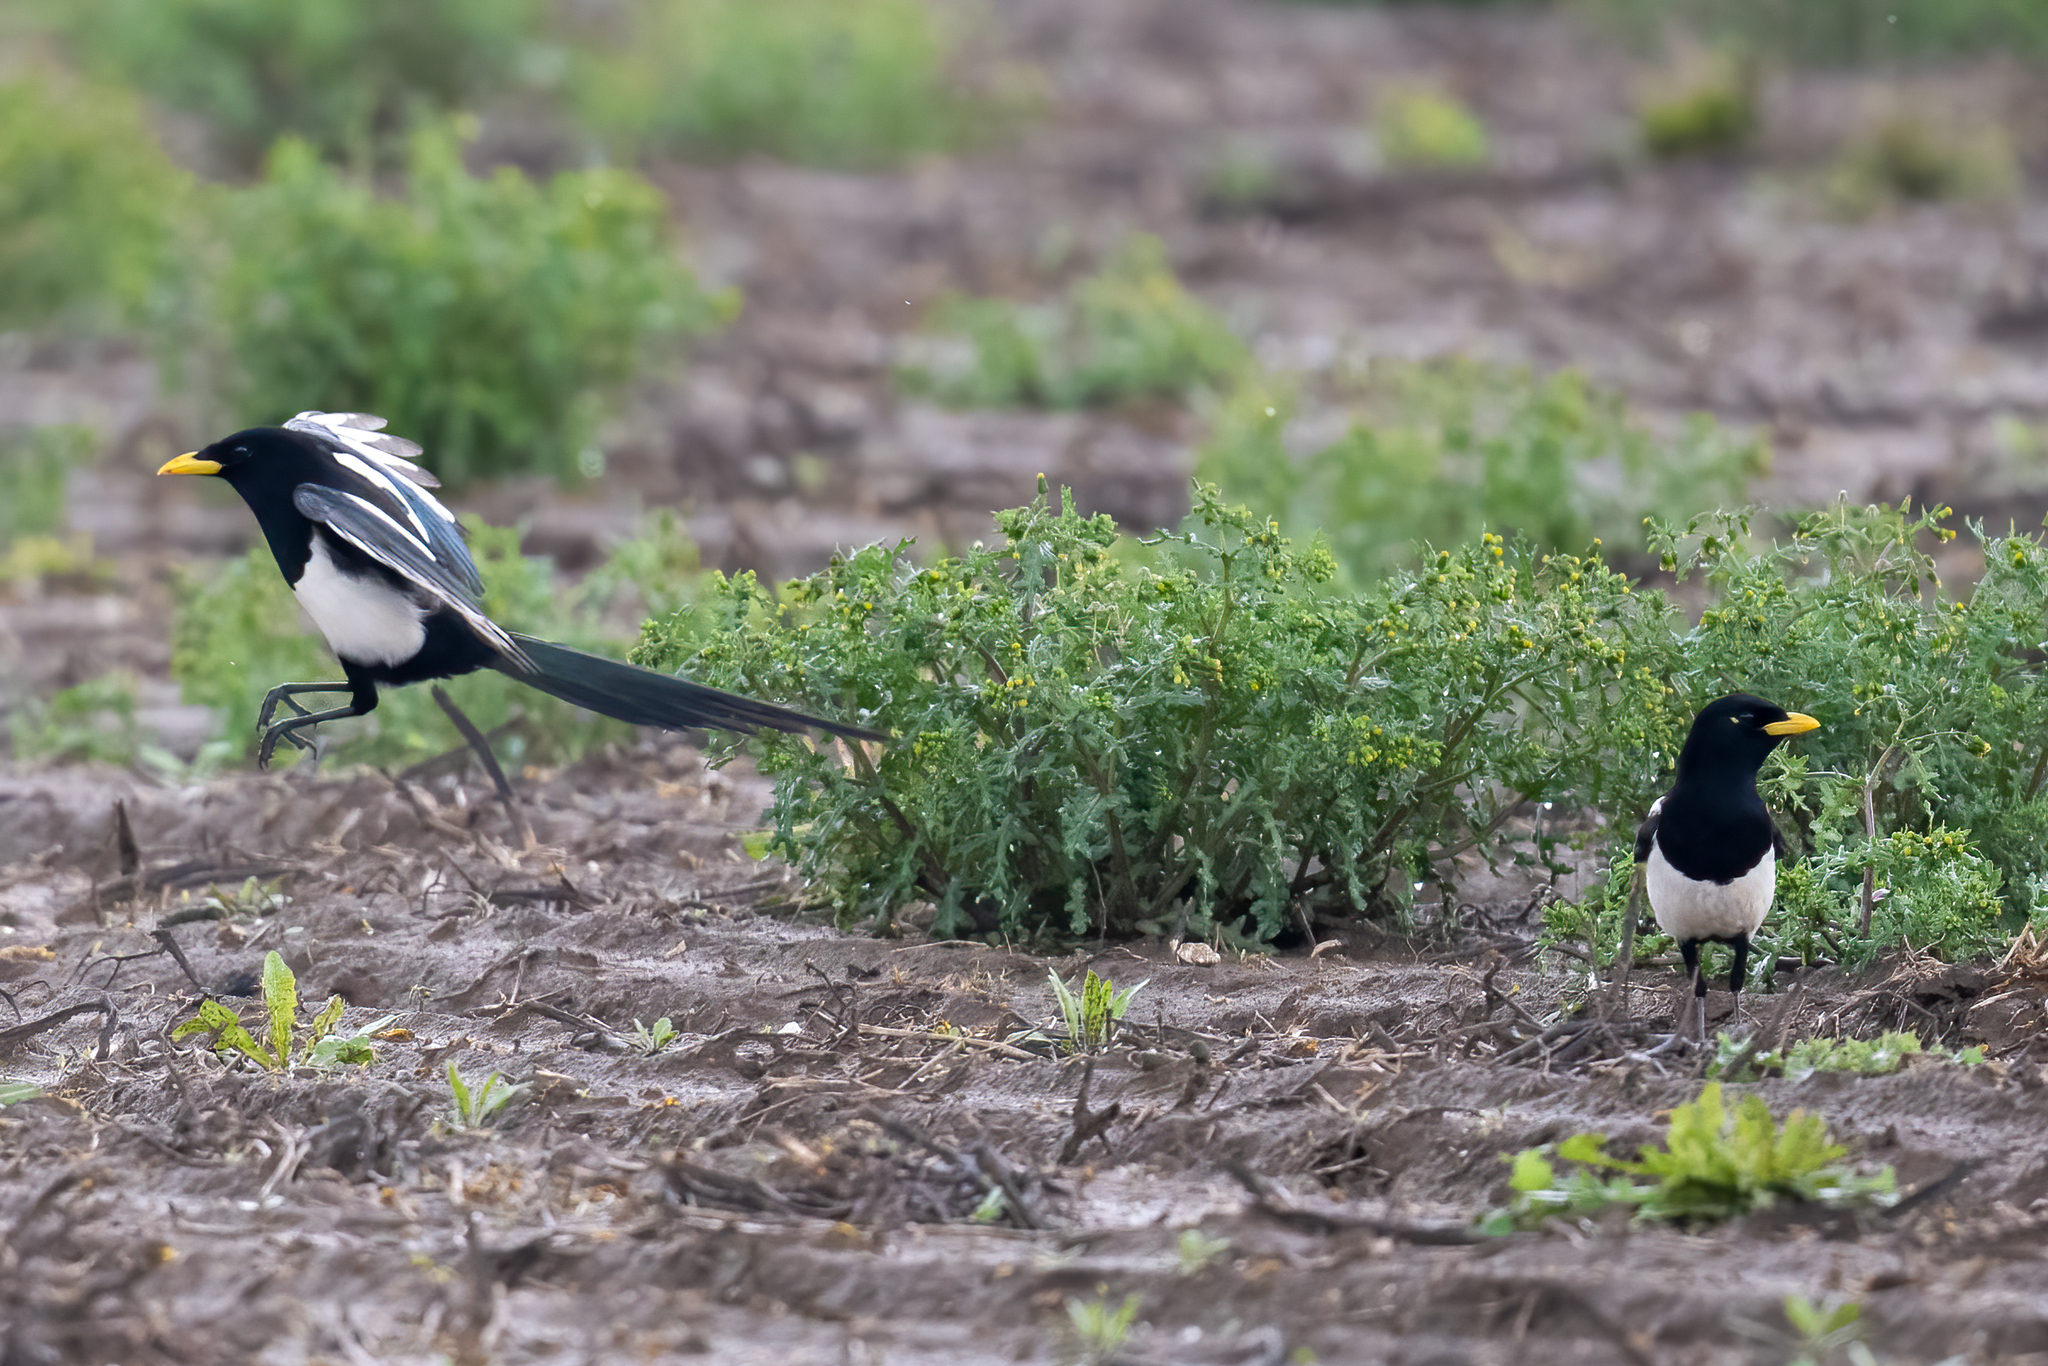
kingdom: Animalia
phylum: Chordata
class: Aves
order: Passeriformes
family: Corvidae
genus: Pica
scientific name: Pica nuttalli
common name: Yellow-billed magpie
